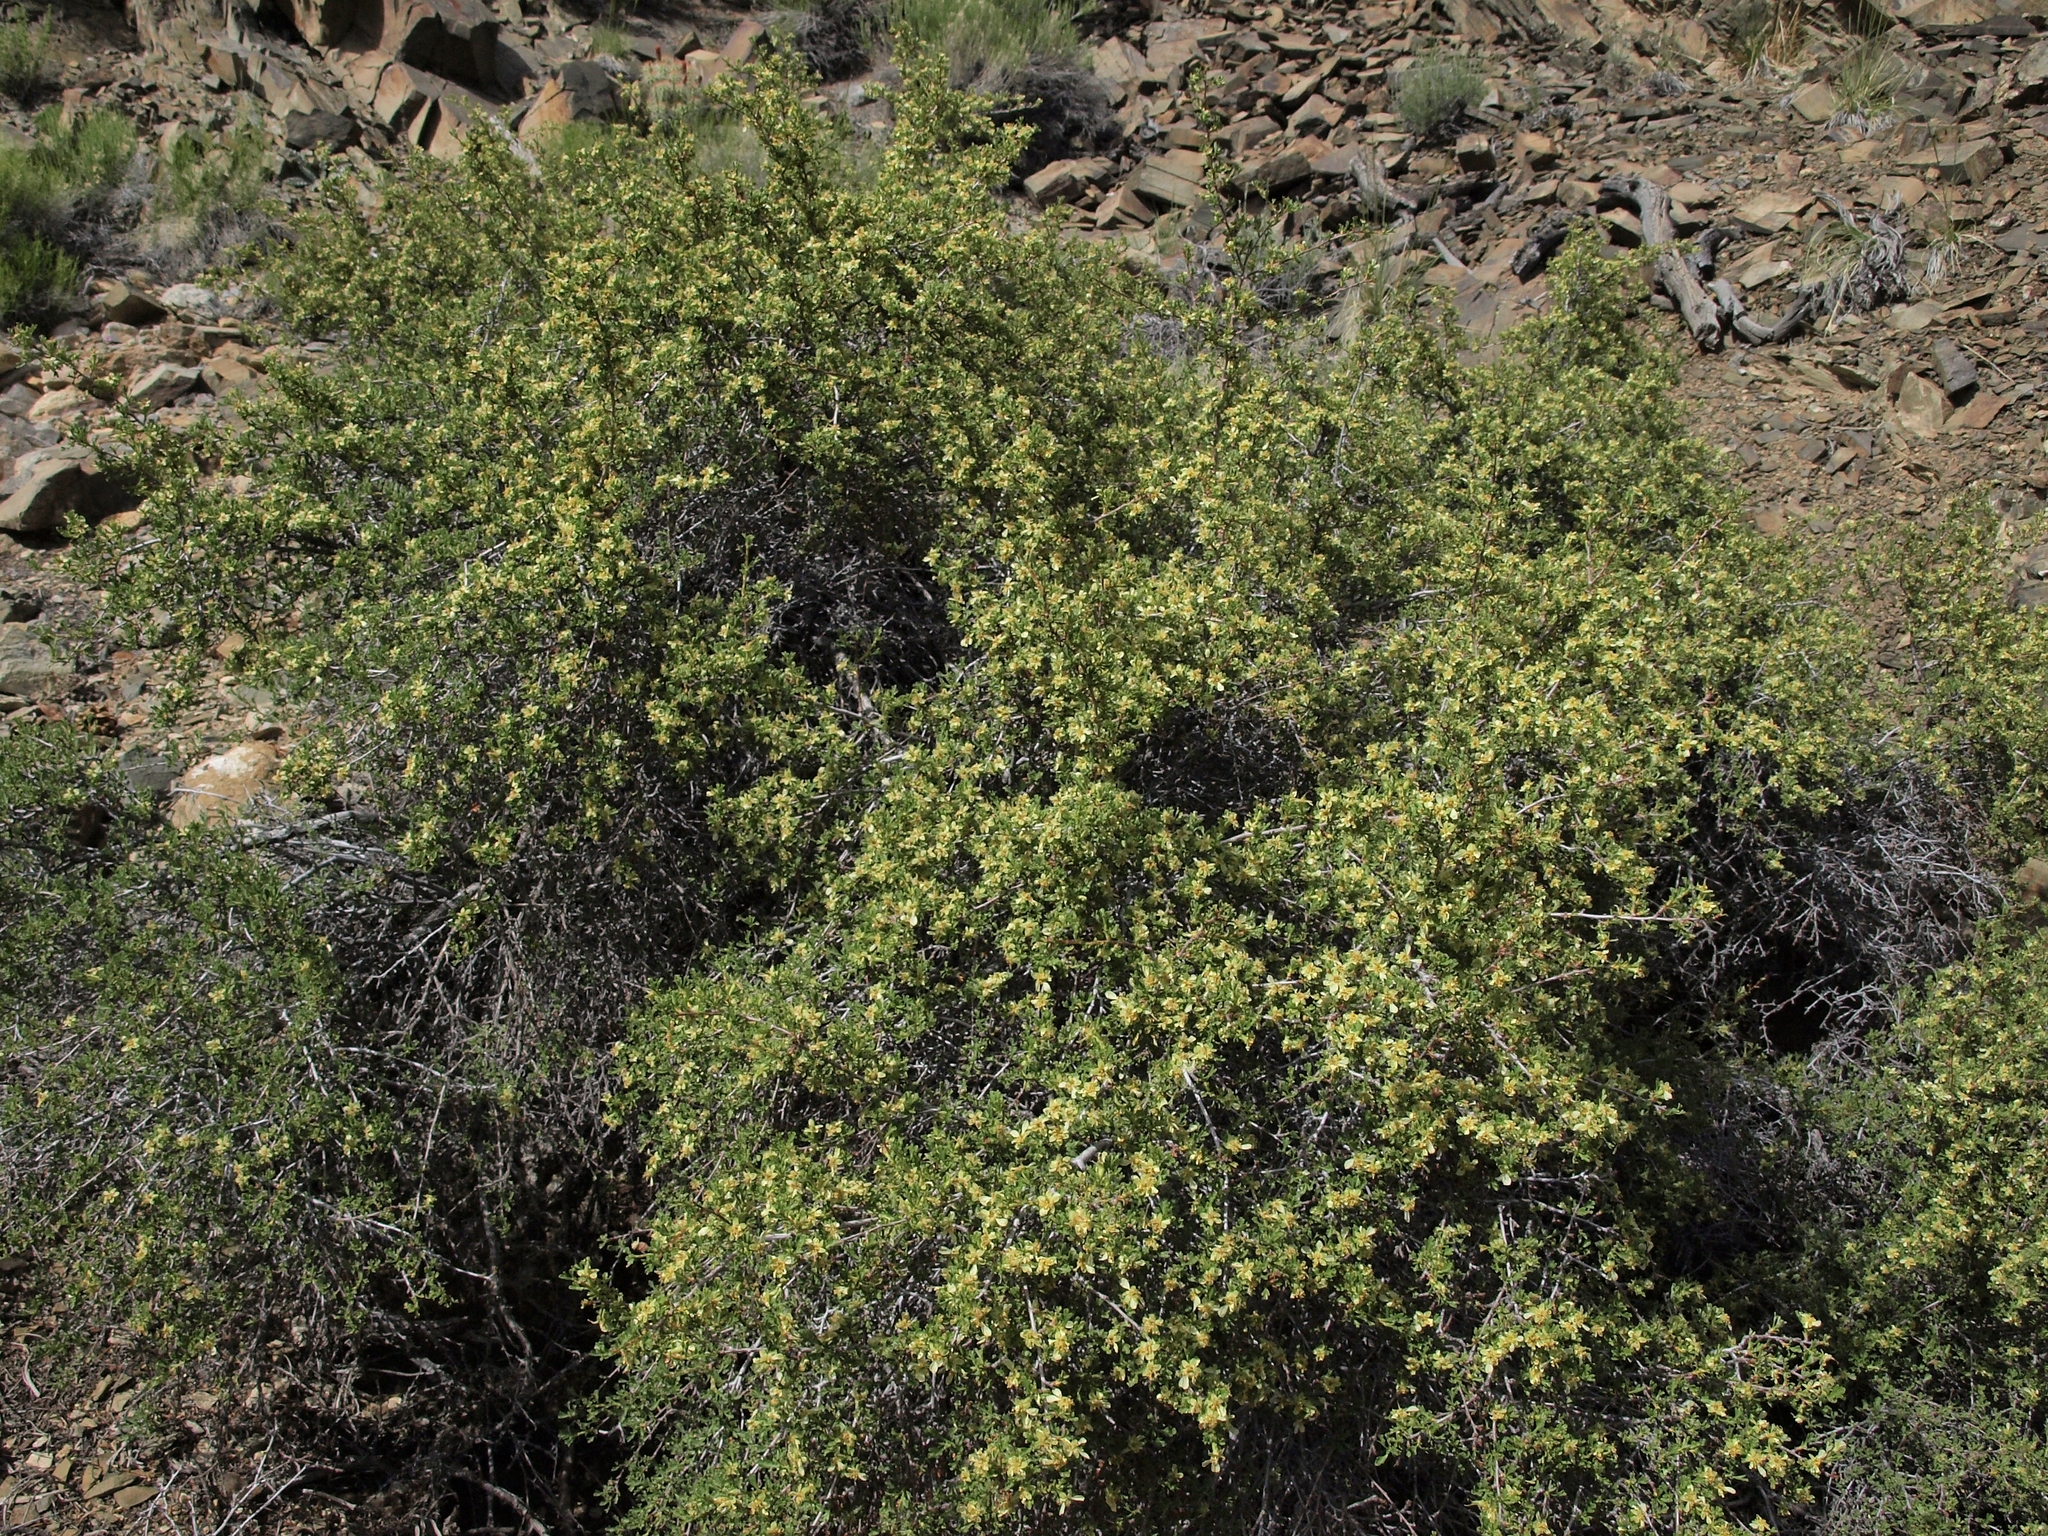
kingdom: Plantae
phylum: Tracheophyta
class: Magnoliopsida
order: Rosales
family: Rosaceae
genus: Purshia
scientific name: Purshia tridentata
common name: Antelope bitterbrush
